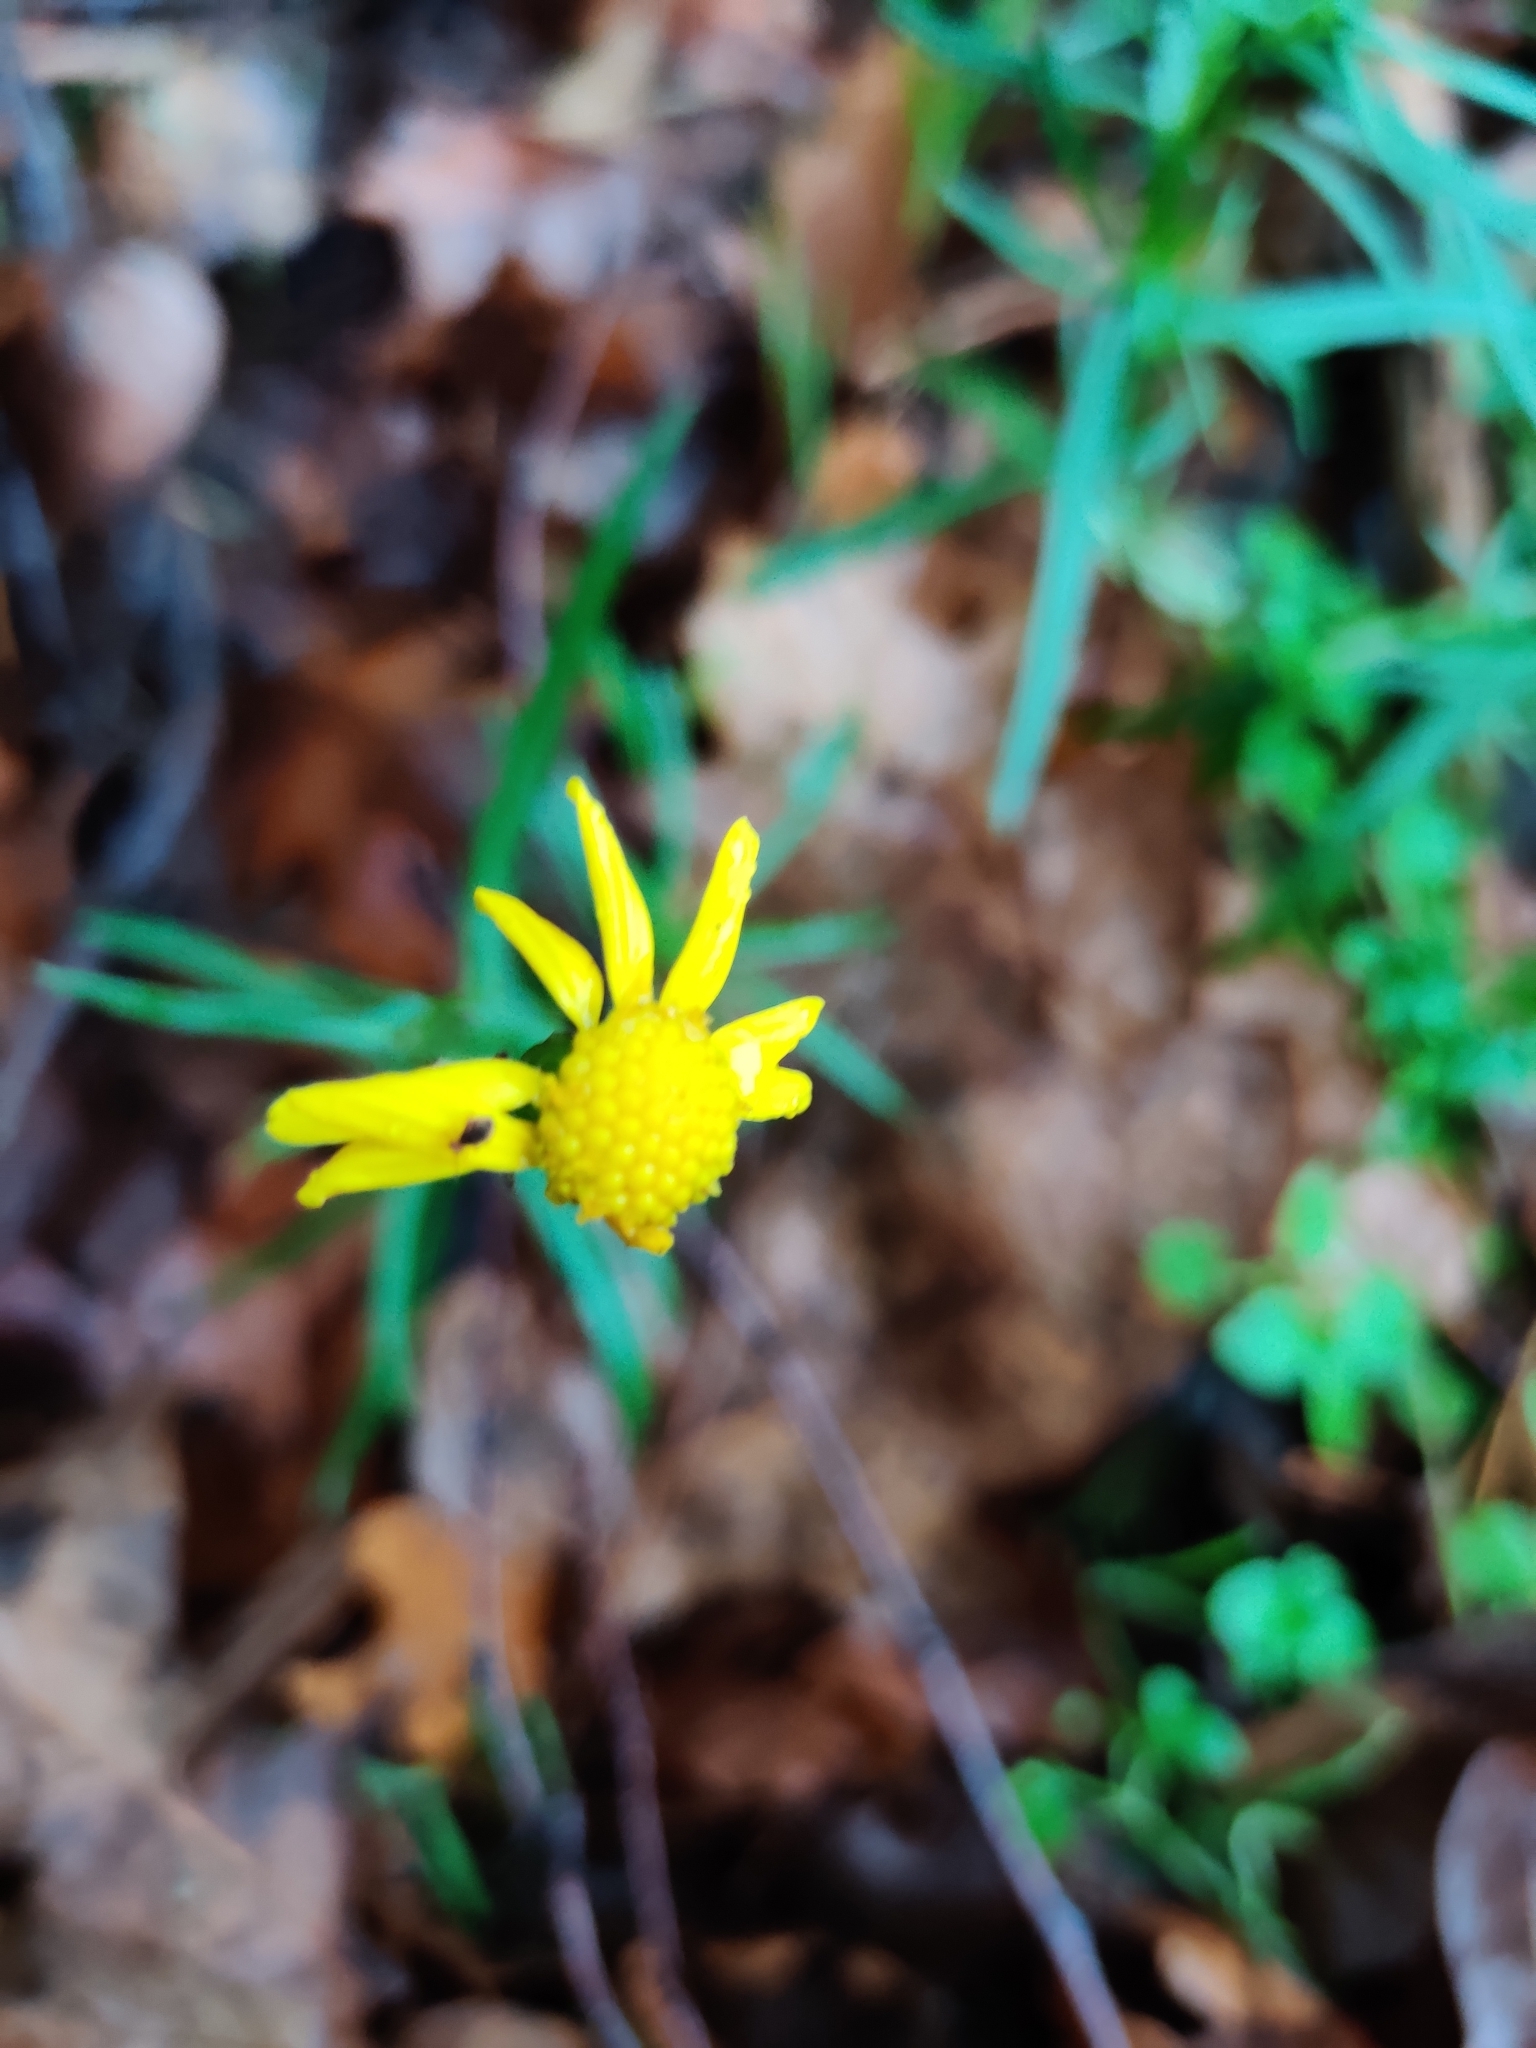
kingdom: Plantae
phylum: Tracheophyta
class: Magnoliopsida
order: Asterales
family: Asteraceae
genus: Senecio
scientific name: Senecio inaequidens
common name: Narrow-leaved ragwort
